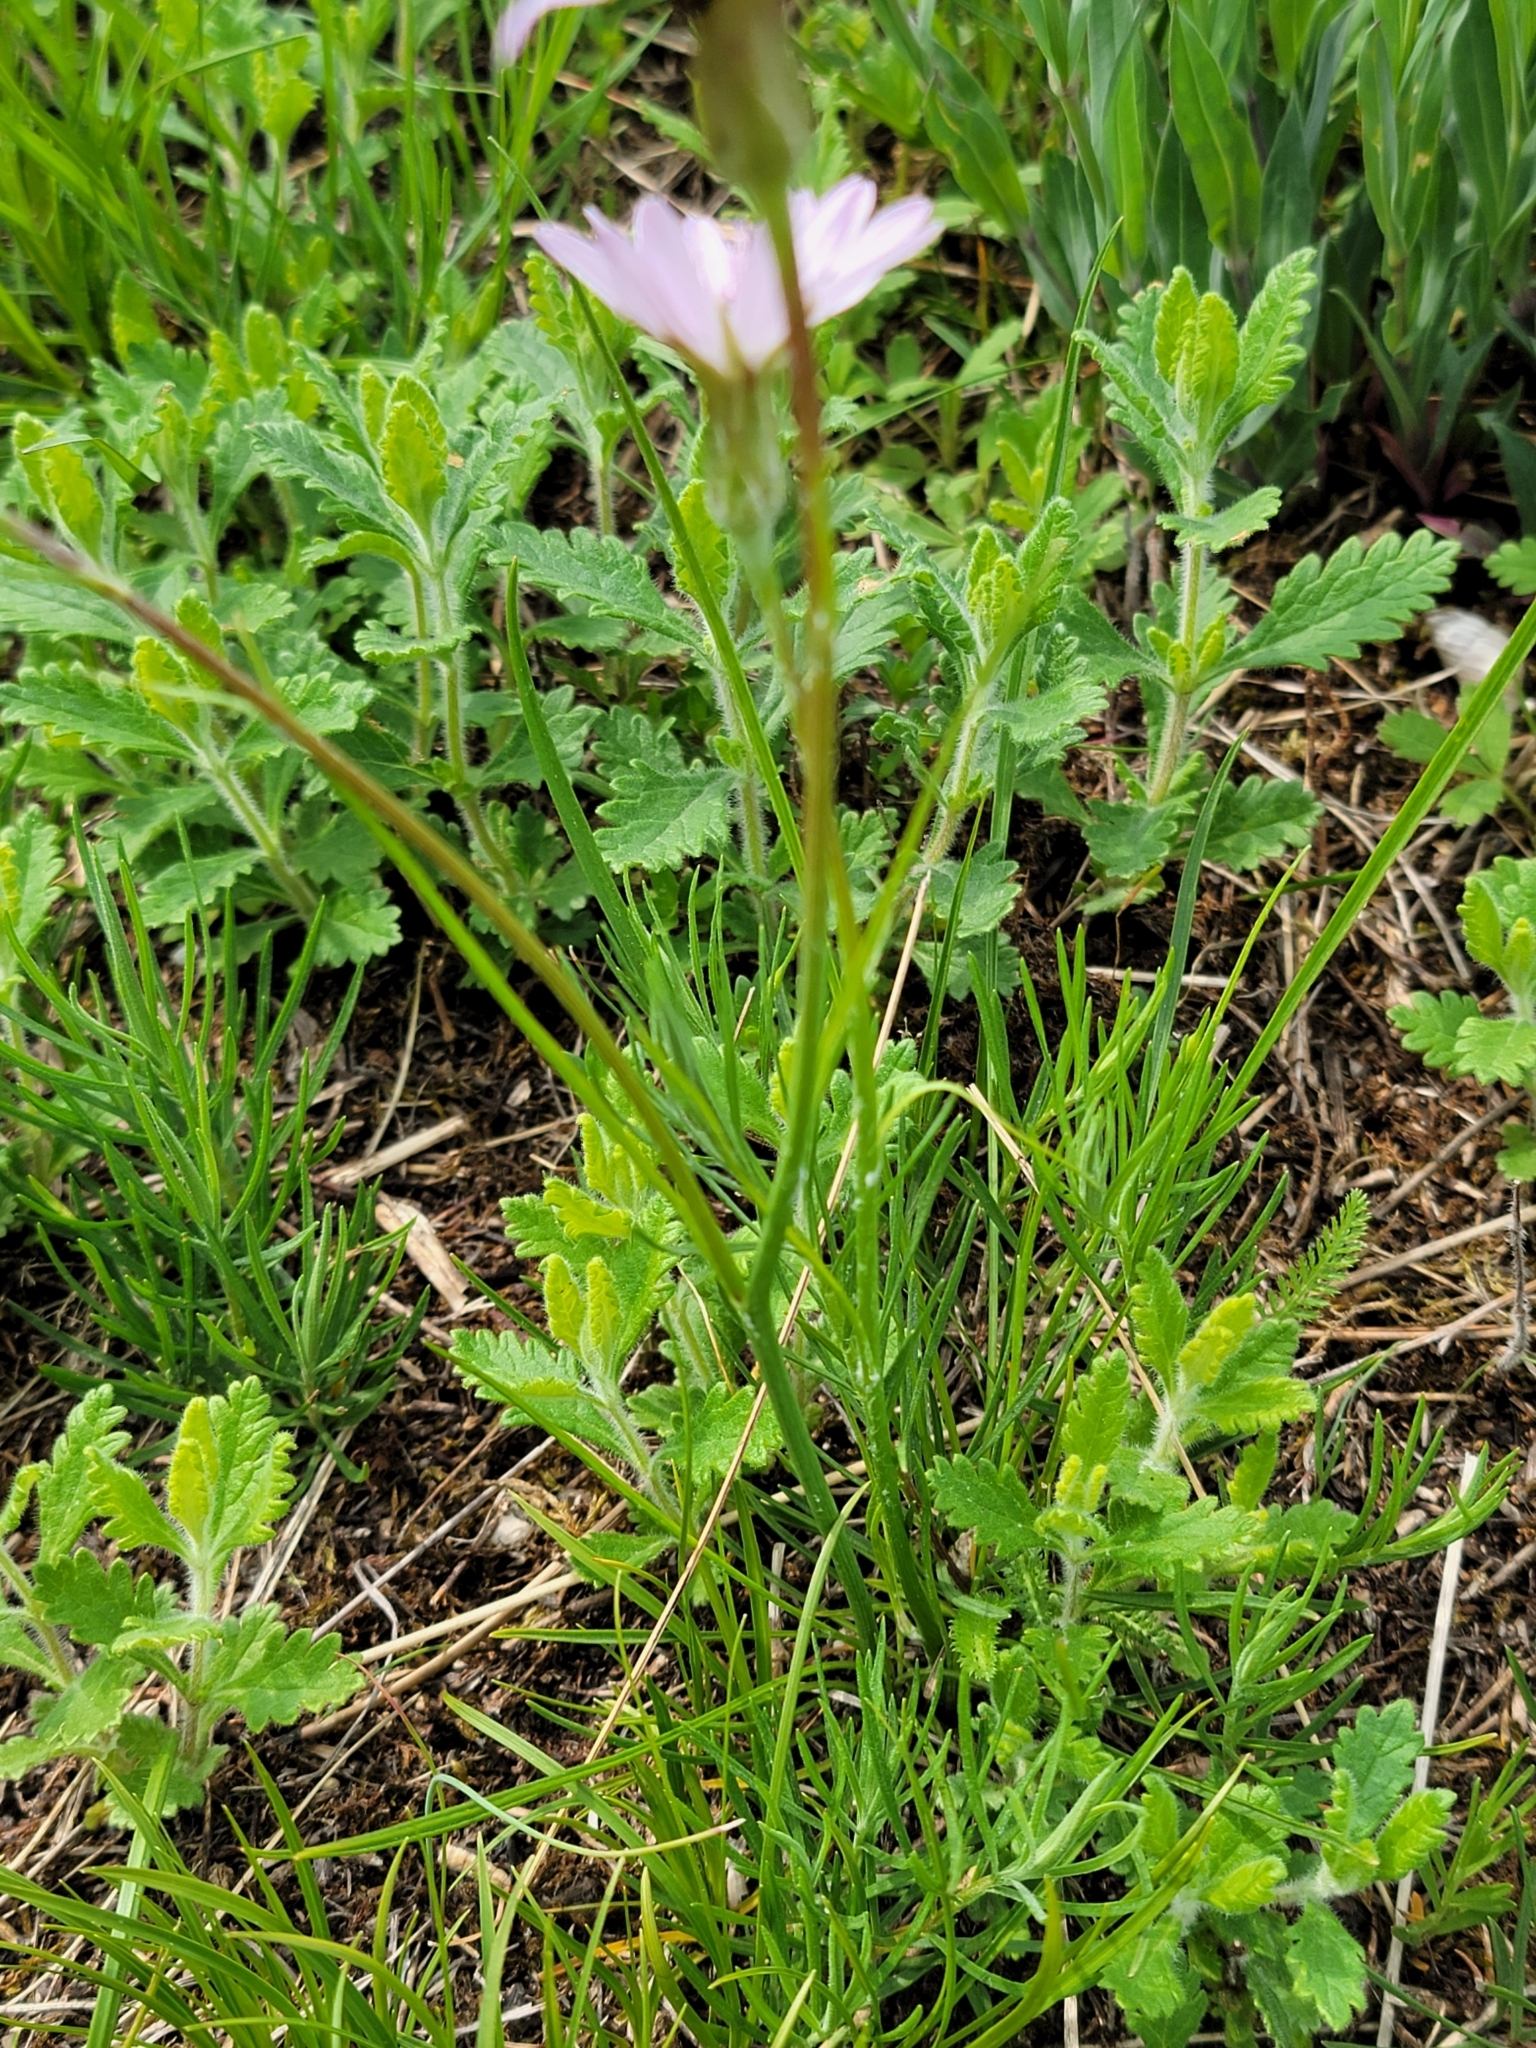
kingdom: Plantae
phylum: Tracheophyta
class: Magnoliopsida
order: Asterales
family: Asteraceae
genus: Scorzonera
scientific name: Scorzonera purpurea
